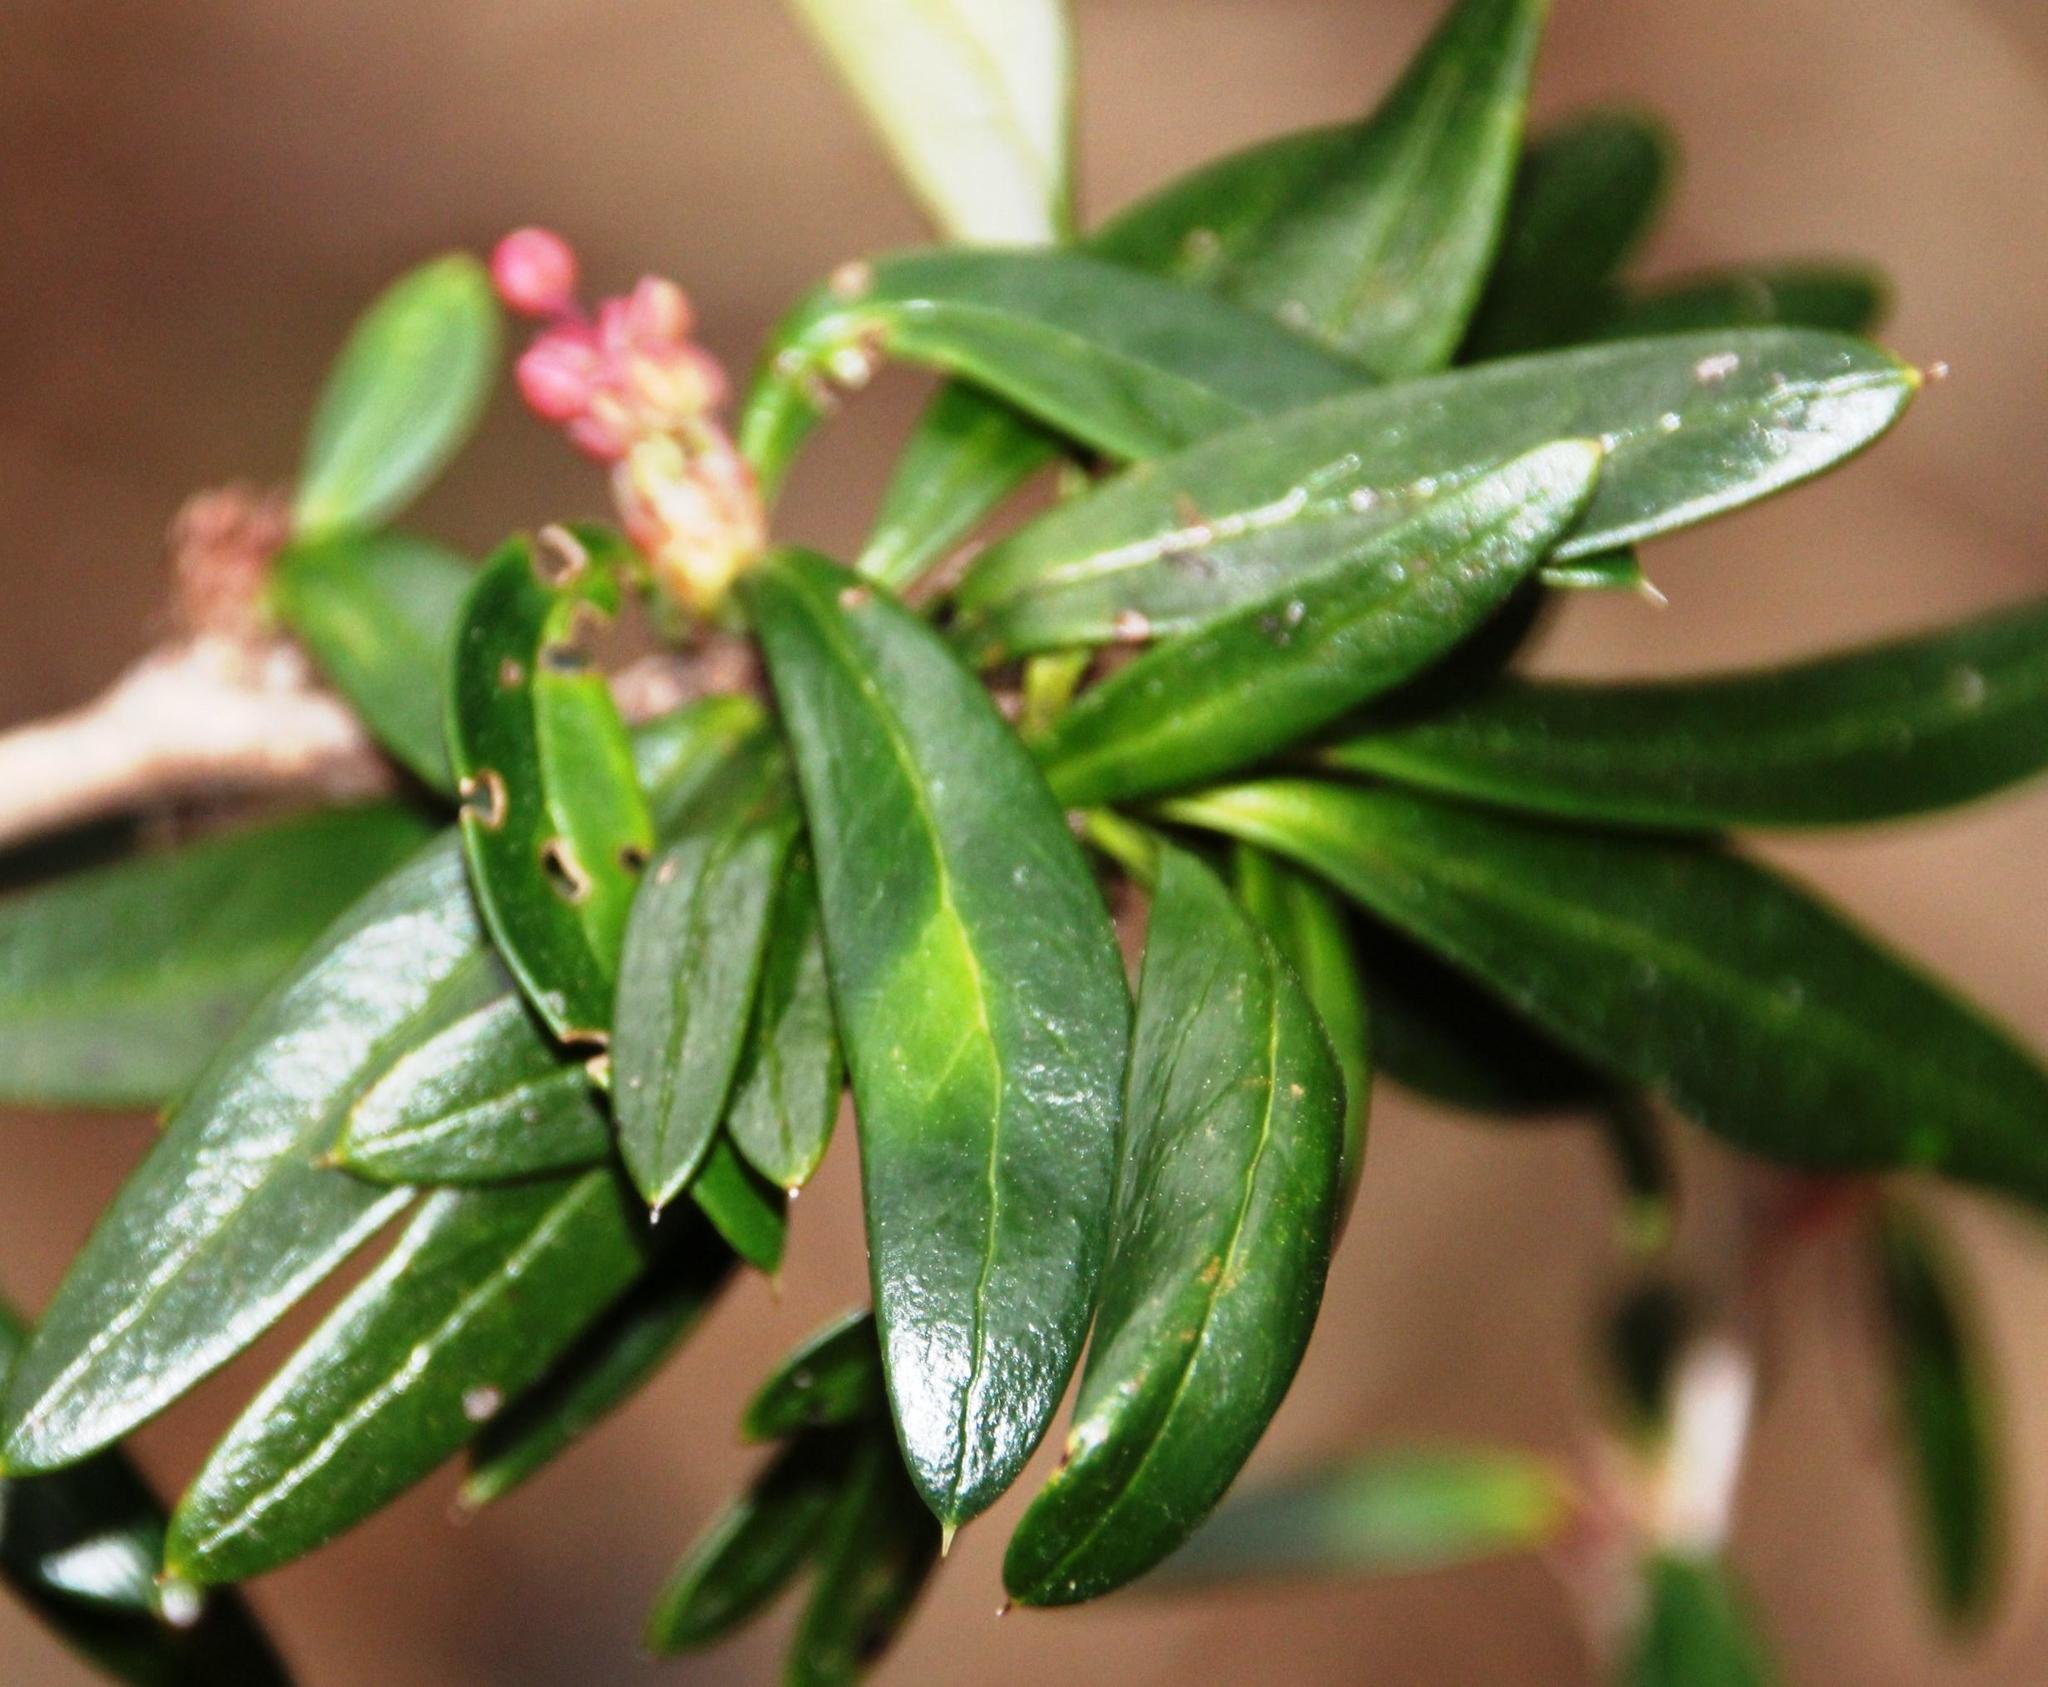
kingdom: Plantae
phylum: Tracheophyta
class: Magnoliopsida
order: Ranunculales
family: Berberidaceae
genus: Berberis
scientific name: Berberis trigona
